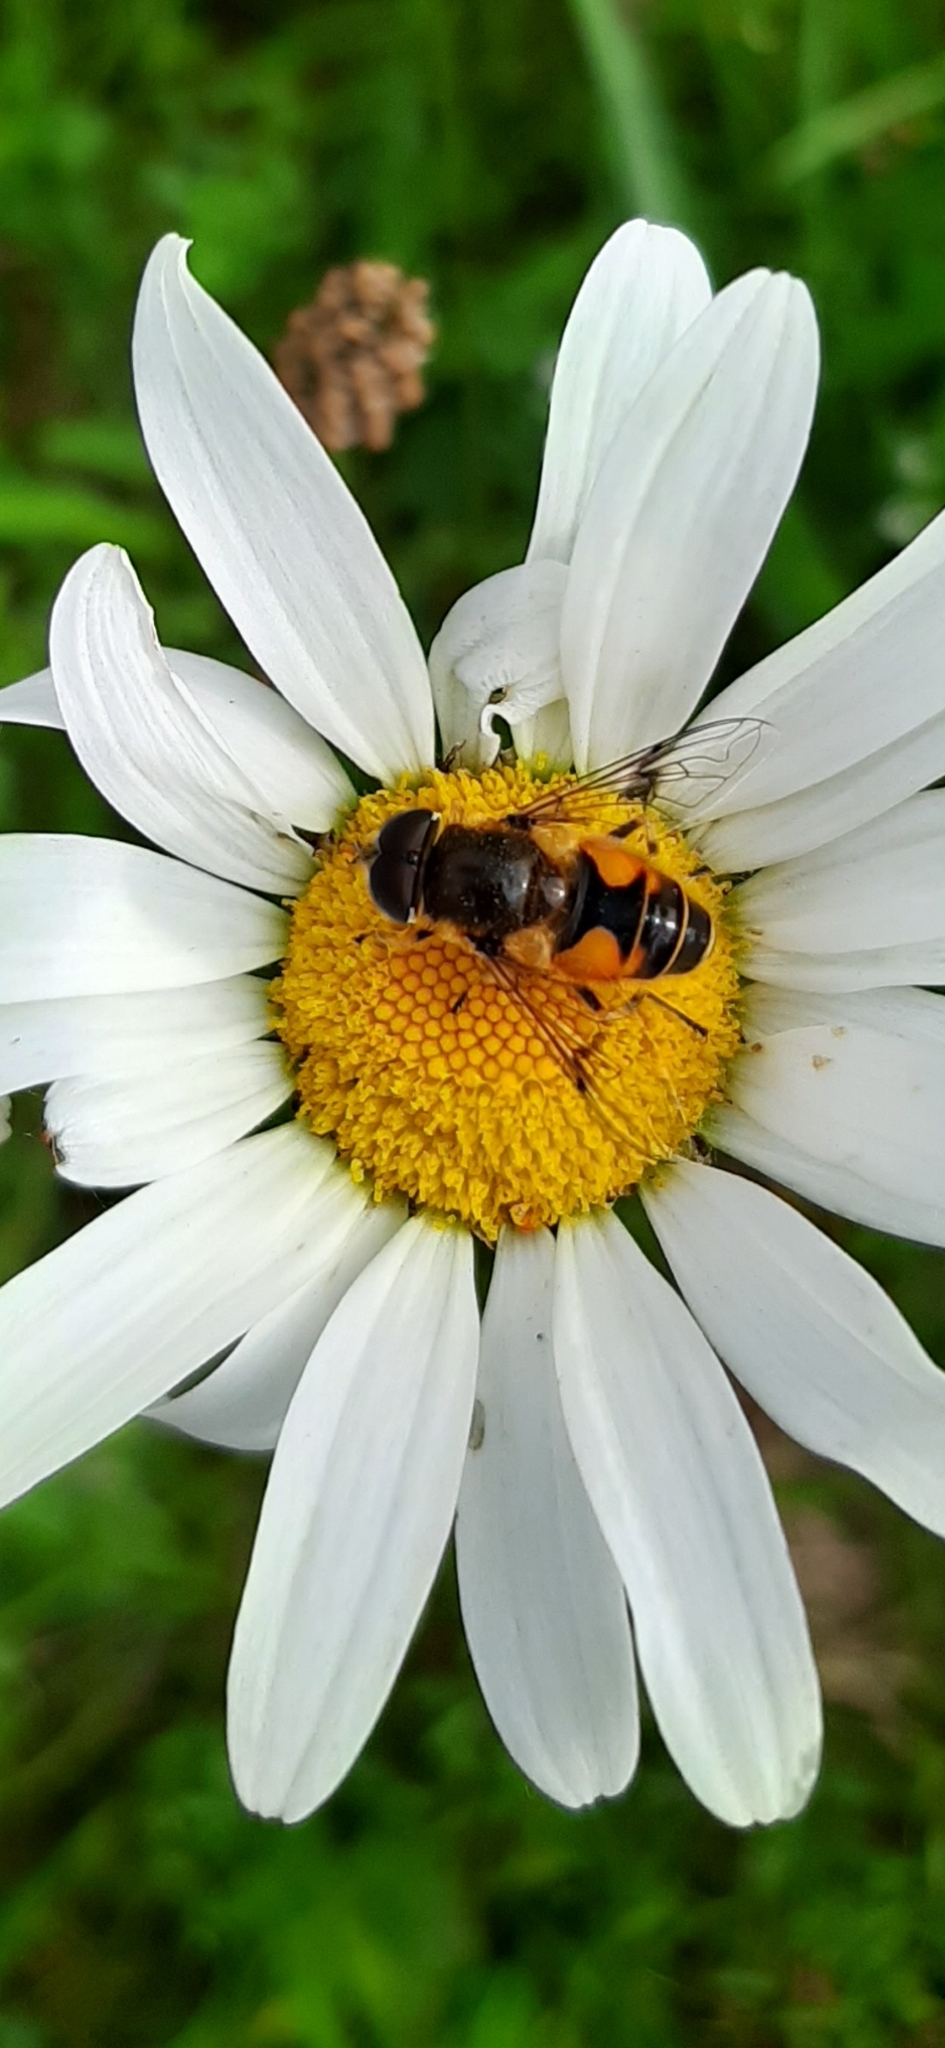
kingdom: Animalia
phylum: Arthropoda
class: Insecta
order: Diptera
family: Syrphidae
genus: Cheilosia
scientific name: Cheilosia morio
